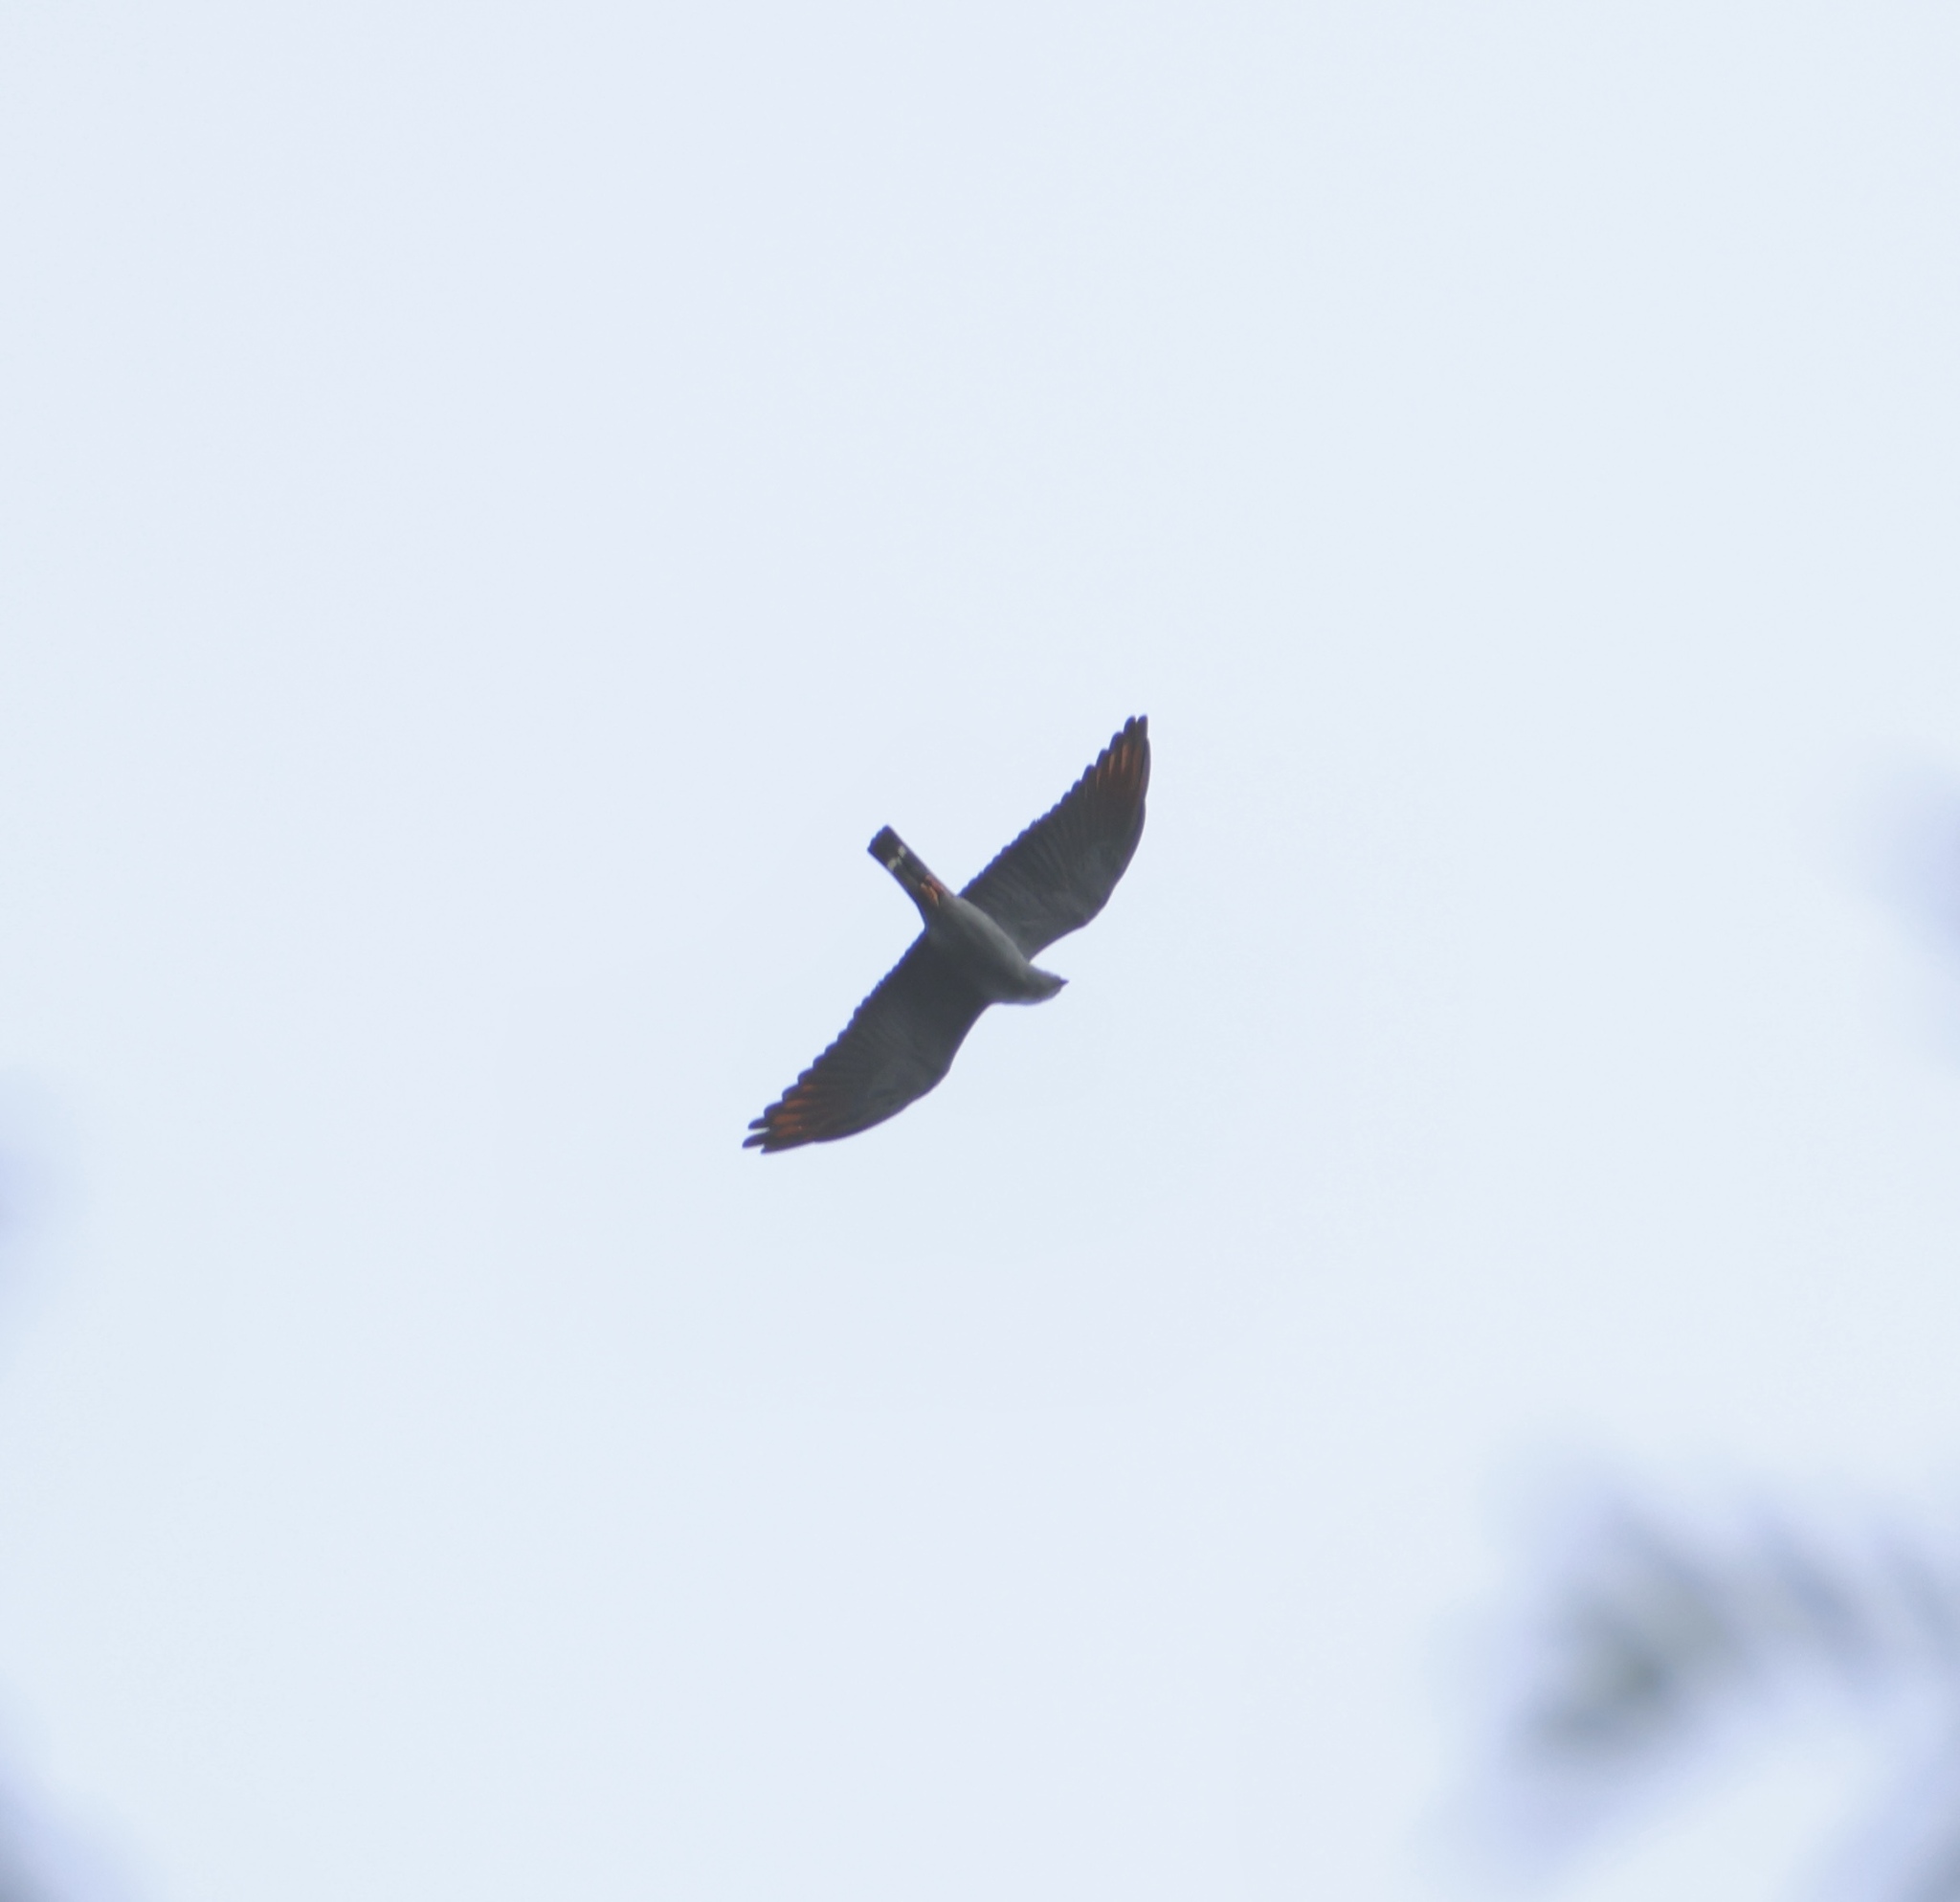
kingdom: Animalia
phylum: Chordata
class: Aves
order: Accipitriformes
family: Accipitridae
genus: Ictinia
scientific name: Ictinia plumbea
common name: Plumbeous kite
